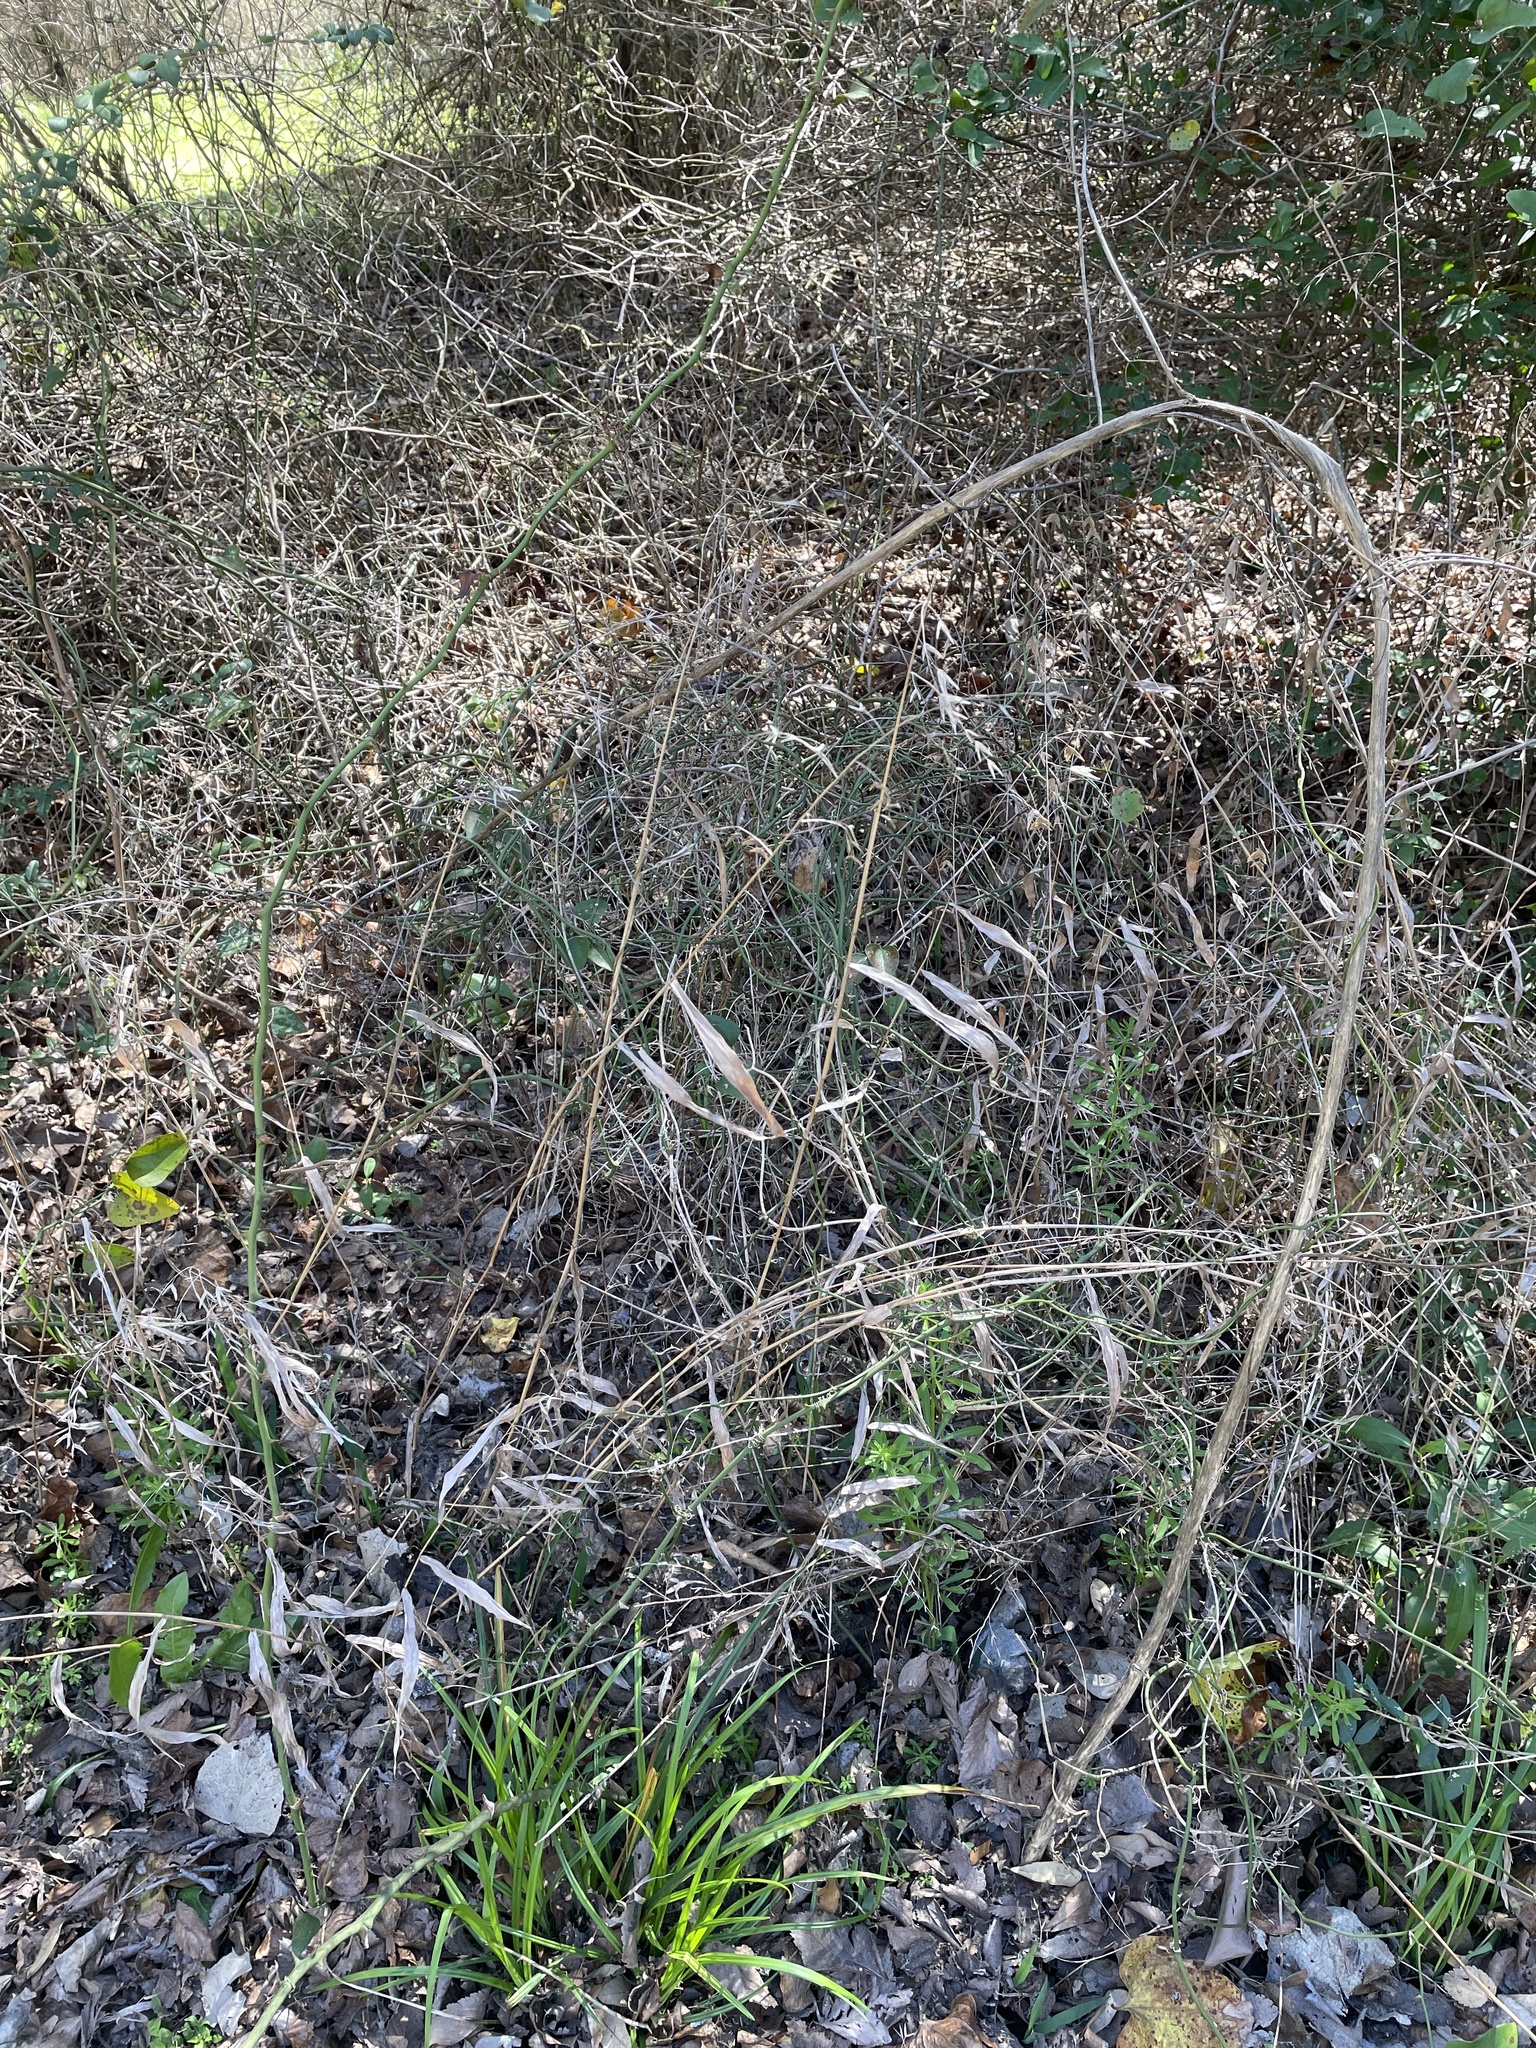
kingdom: Plantae
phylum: Tracheophyta
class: Liliopsida
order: Poales
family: Poaceae
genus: Chasmanthium
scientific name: Chasmanthium latifolium
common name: Broad-leaved chasmanthium
